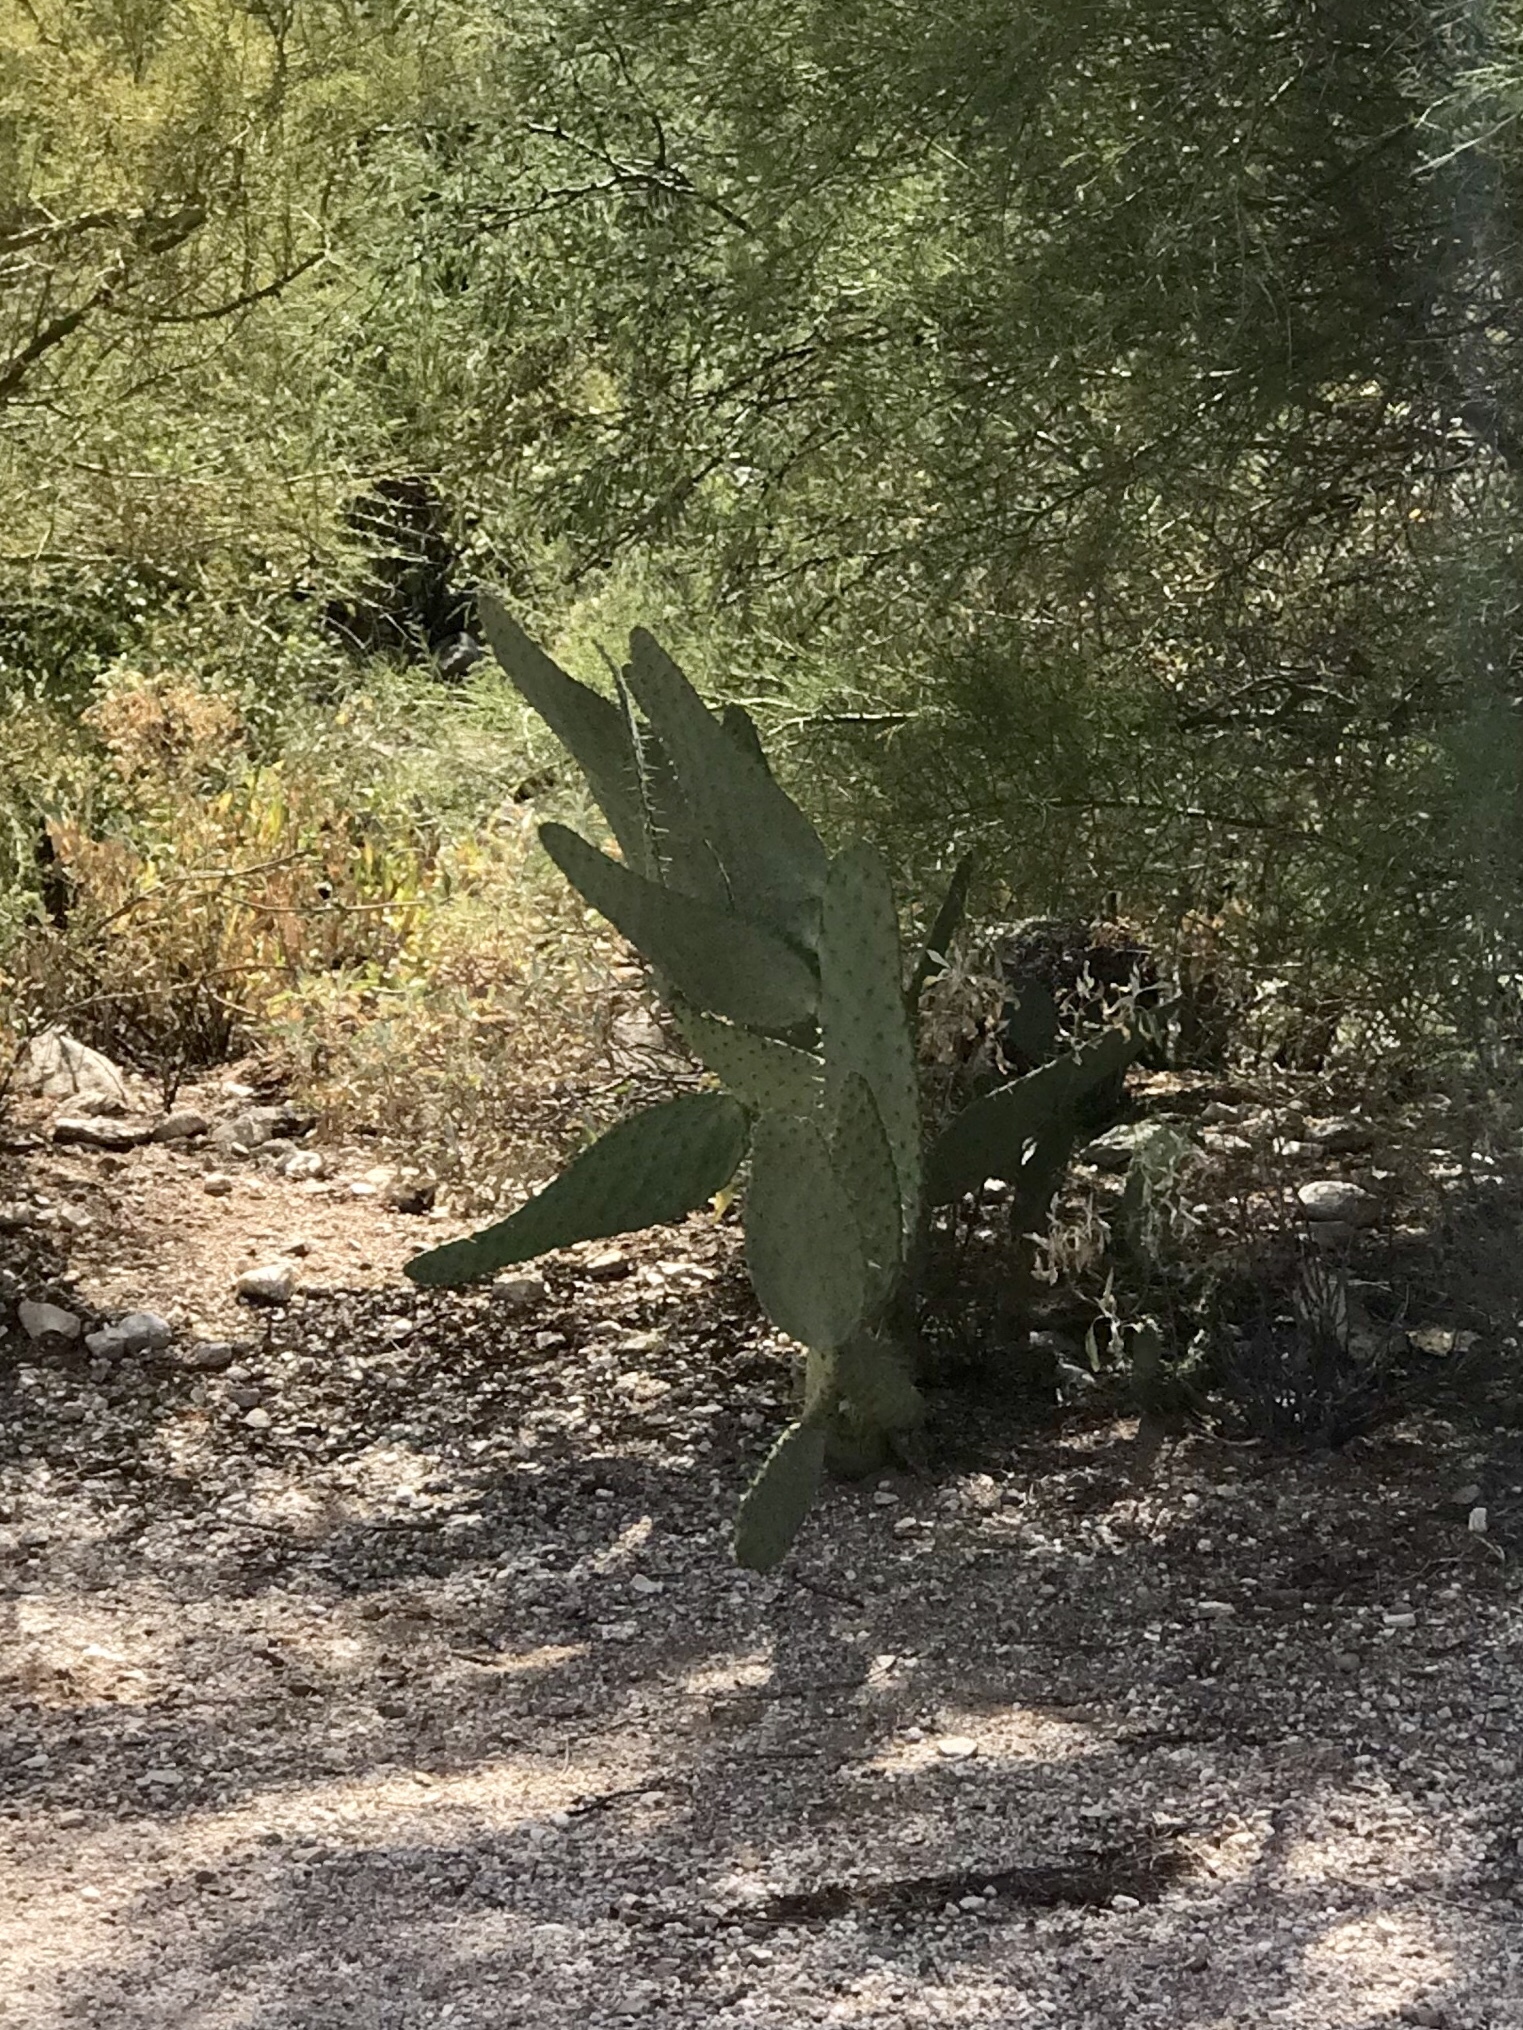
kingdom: Plantae
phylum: Tracheophyta
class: Magnoliopsida
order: Caryophyllales
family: Cactaceae
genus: Opuntia
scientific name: Opuntia engelmannii
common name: Cactus-apple
